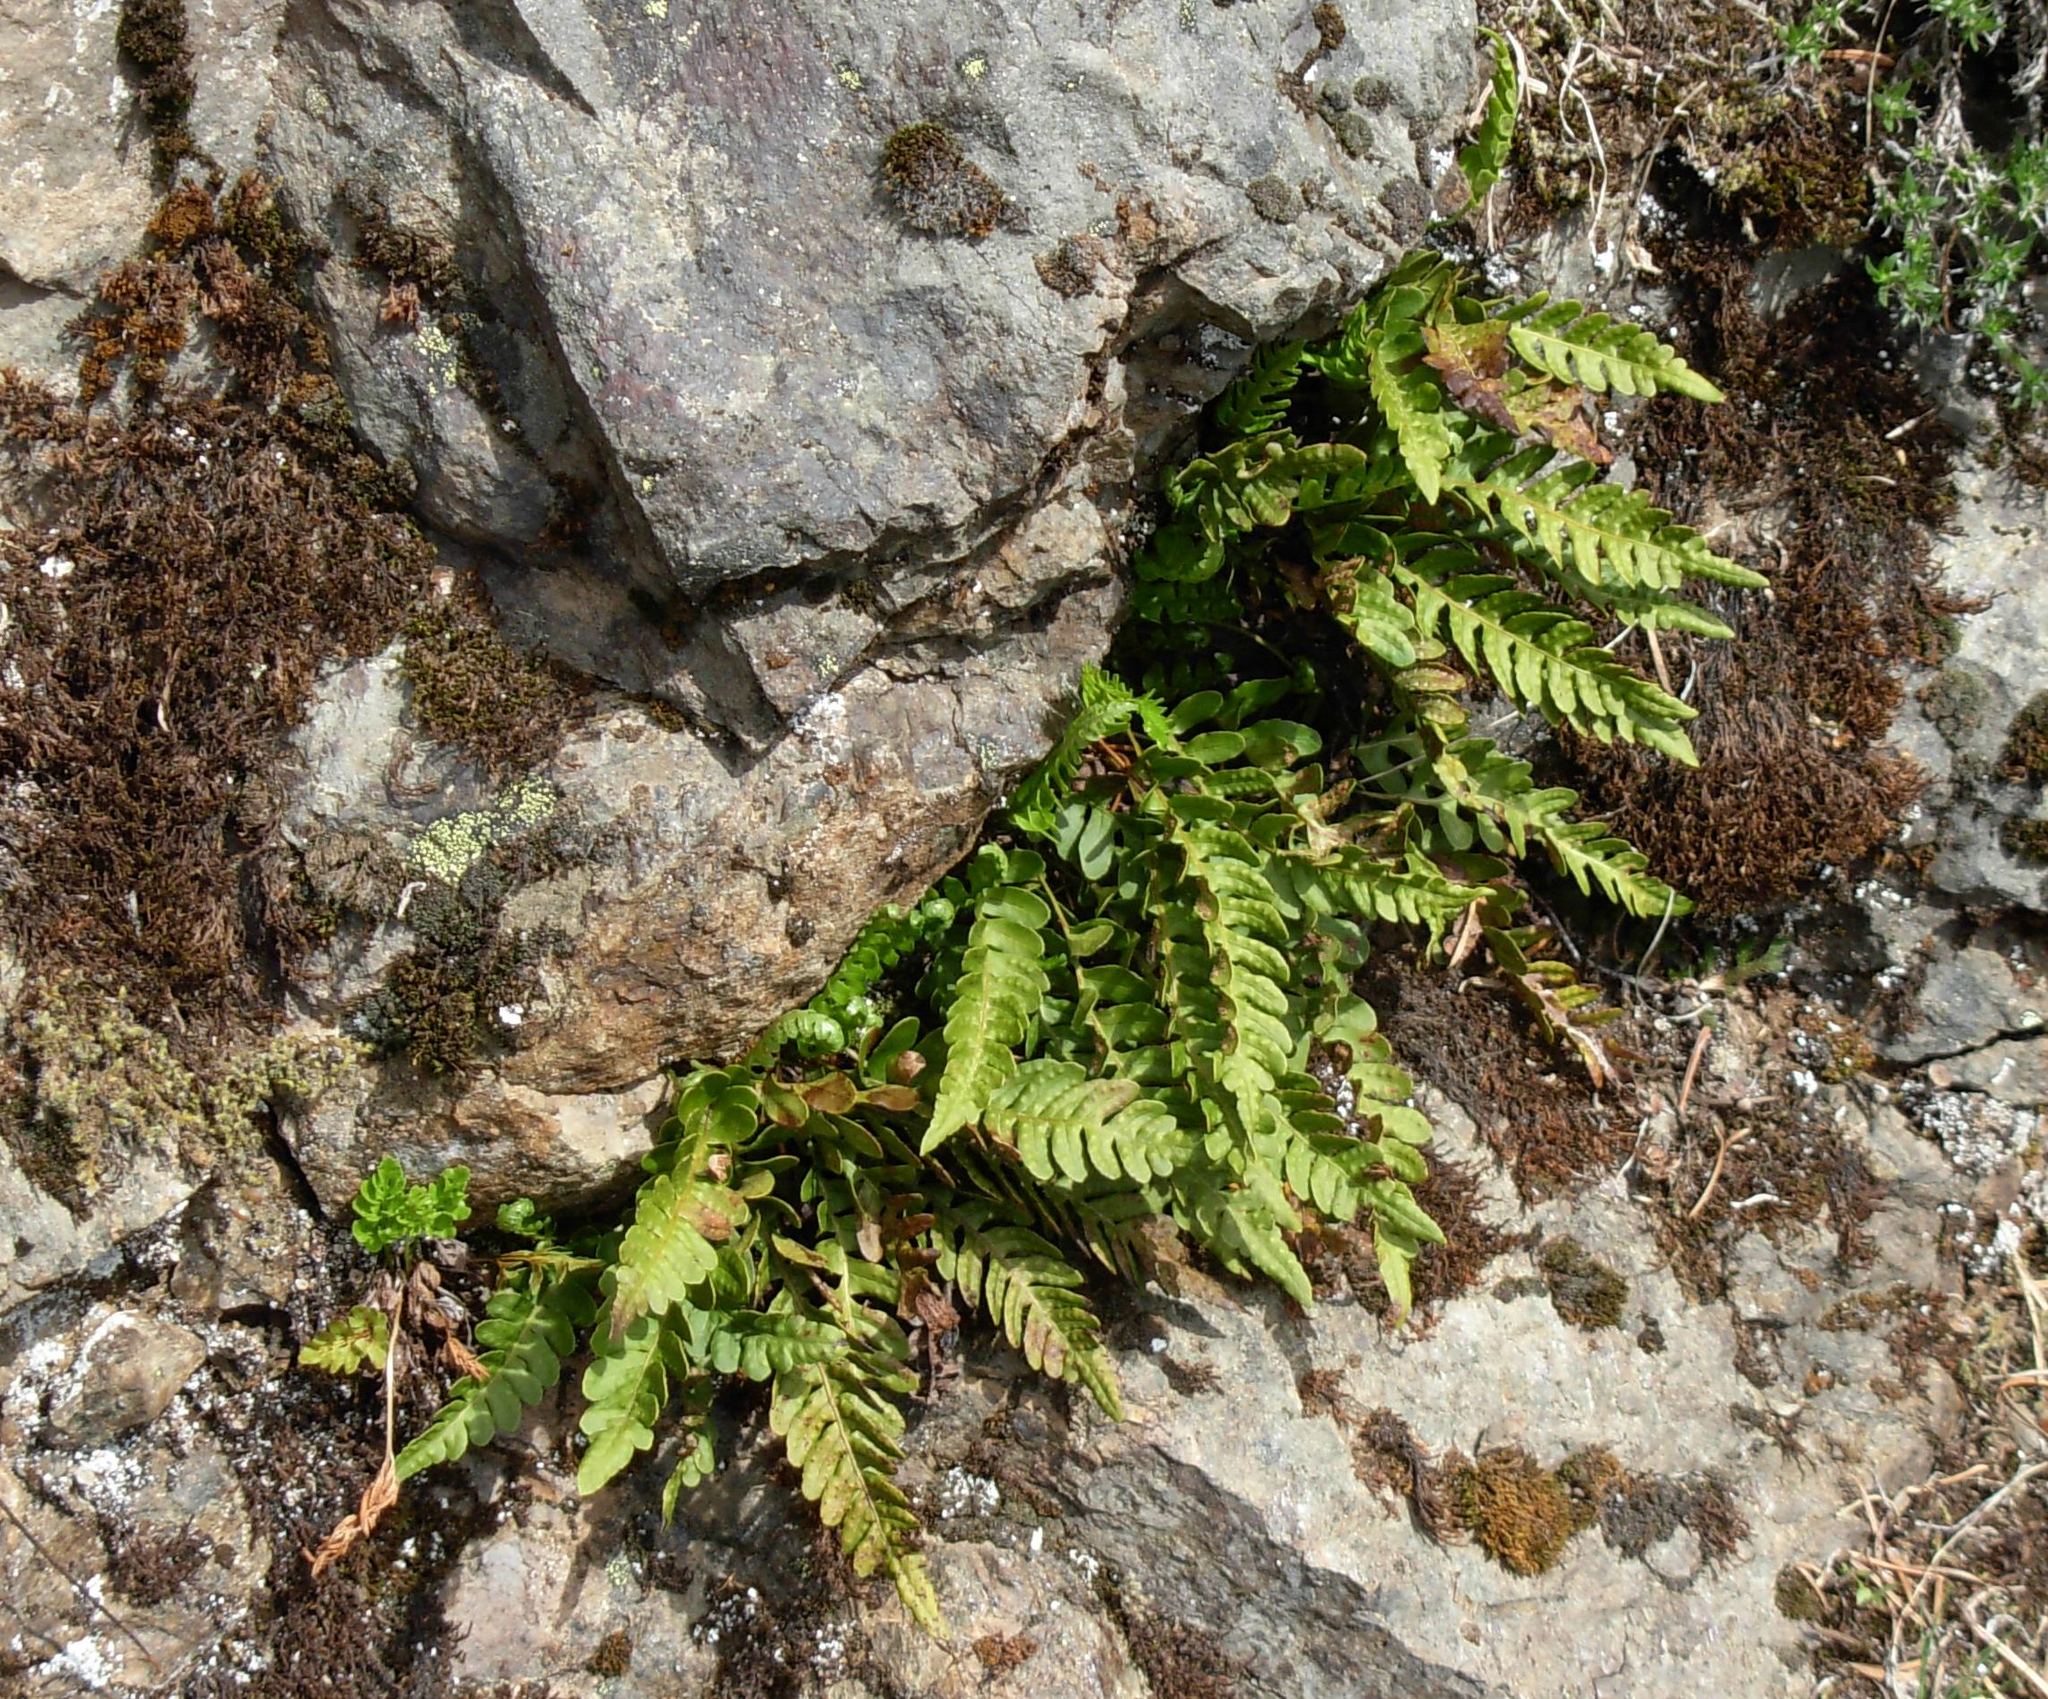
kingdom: Plantae
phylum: Tracheophyta
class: Polypodiopsida
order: Polypodiales
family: Polypodiaceae
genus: Polypodium
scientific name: Polypodium amorphum
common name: Pacific polypody
